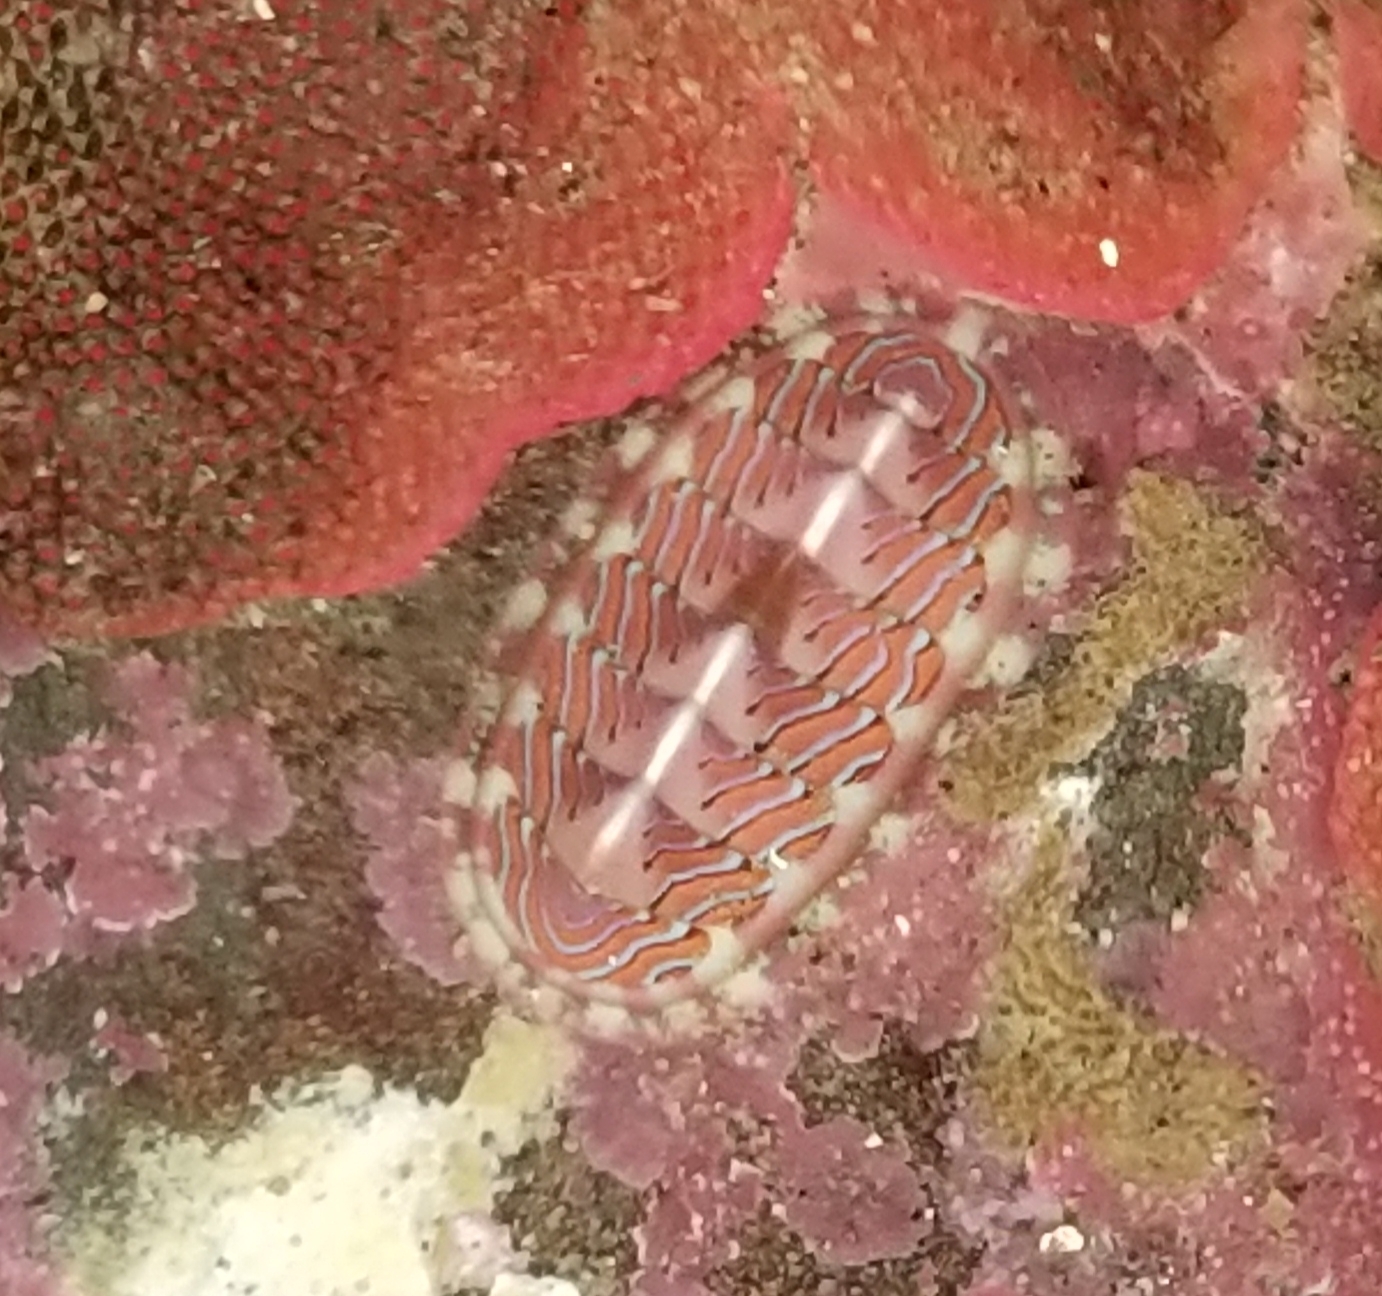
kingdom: Animalia
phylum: Mollusca
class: Polyplacophora
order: Chitonida
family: Tonicellidae
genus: Tonicella
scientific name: Tonicella lineata
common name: Lined chiton
